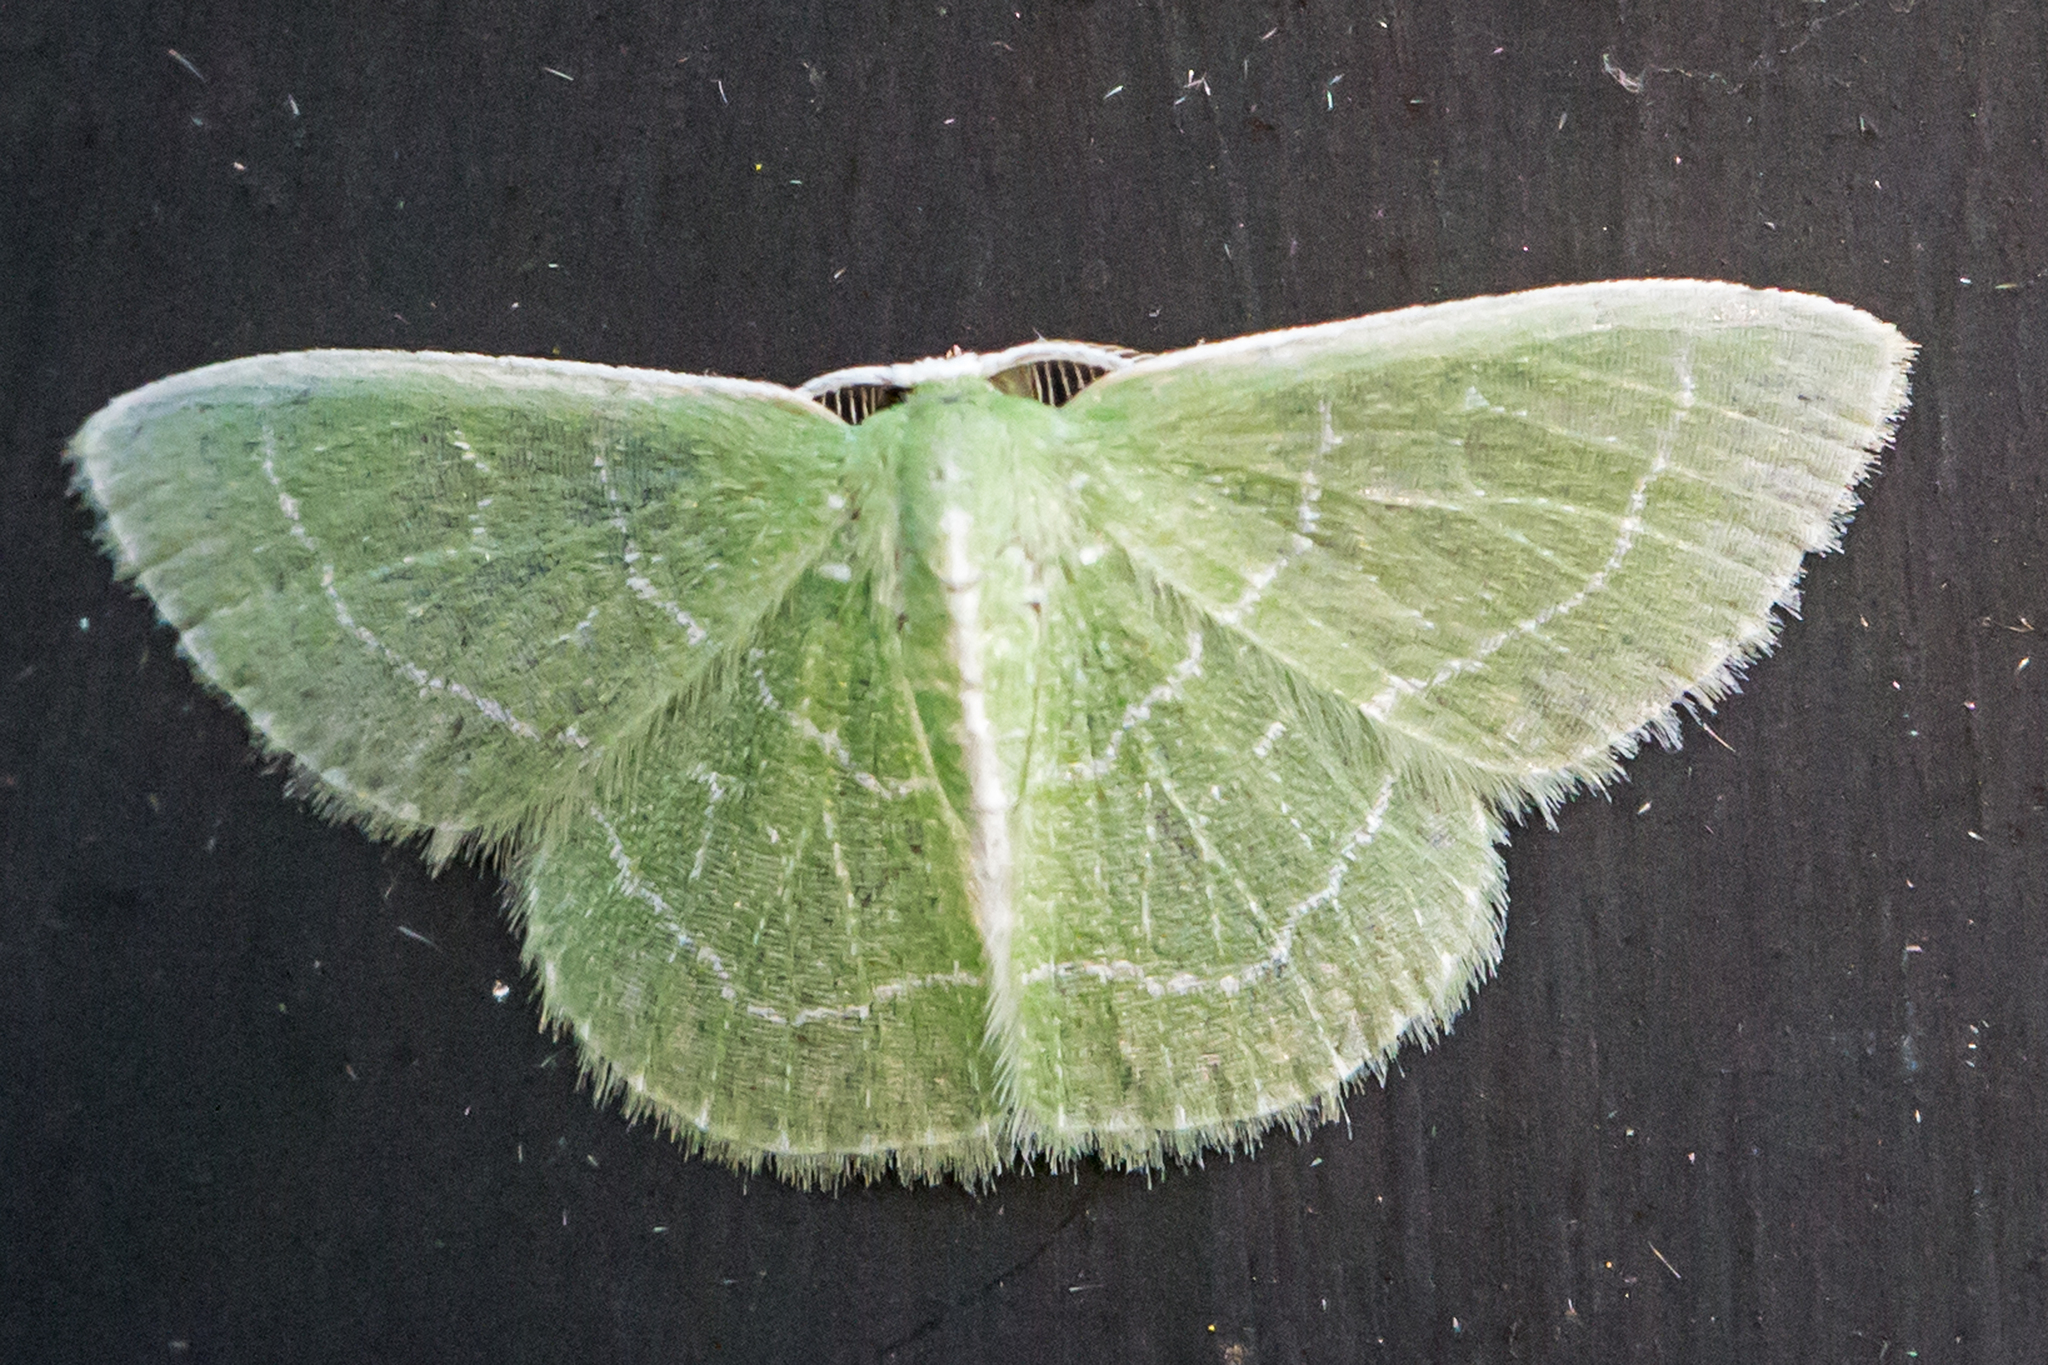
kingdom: Animalia
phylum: Arthropoda
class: Insecta
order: Lepidoptera
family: Geometridae
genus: Synchlora
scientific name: Synchlora aerata
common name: Wavy-lined emerald
